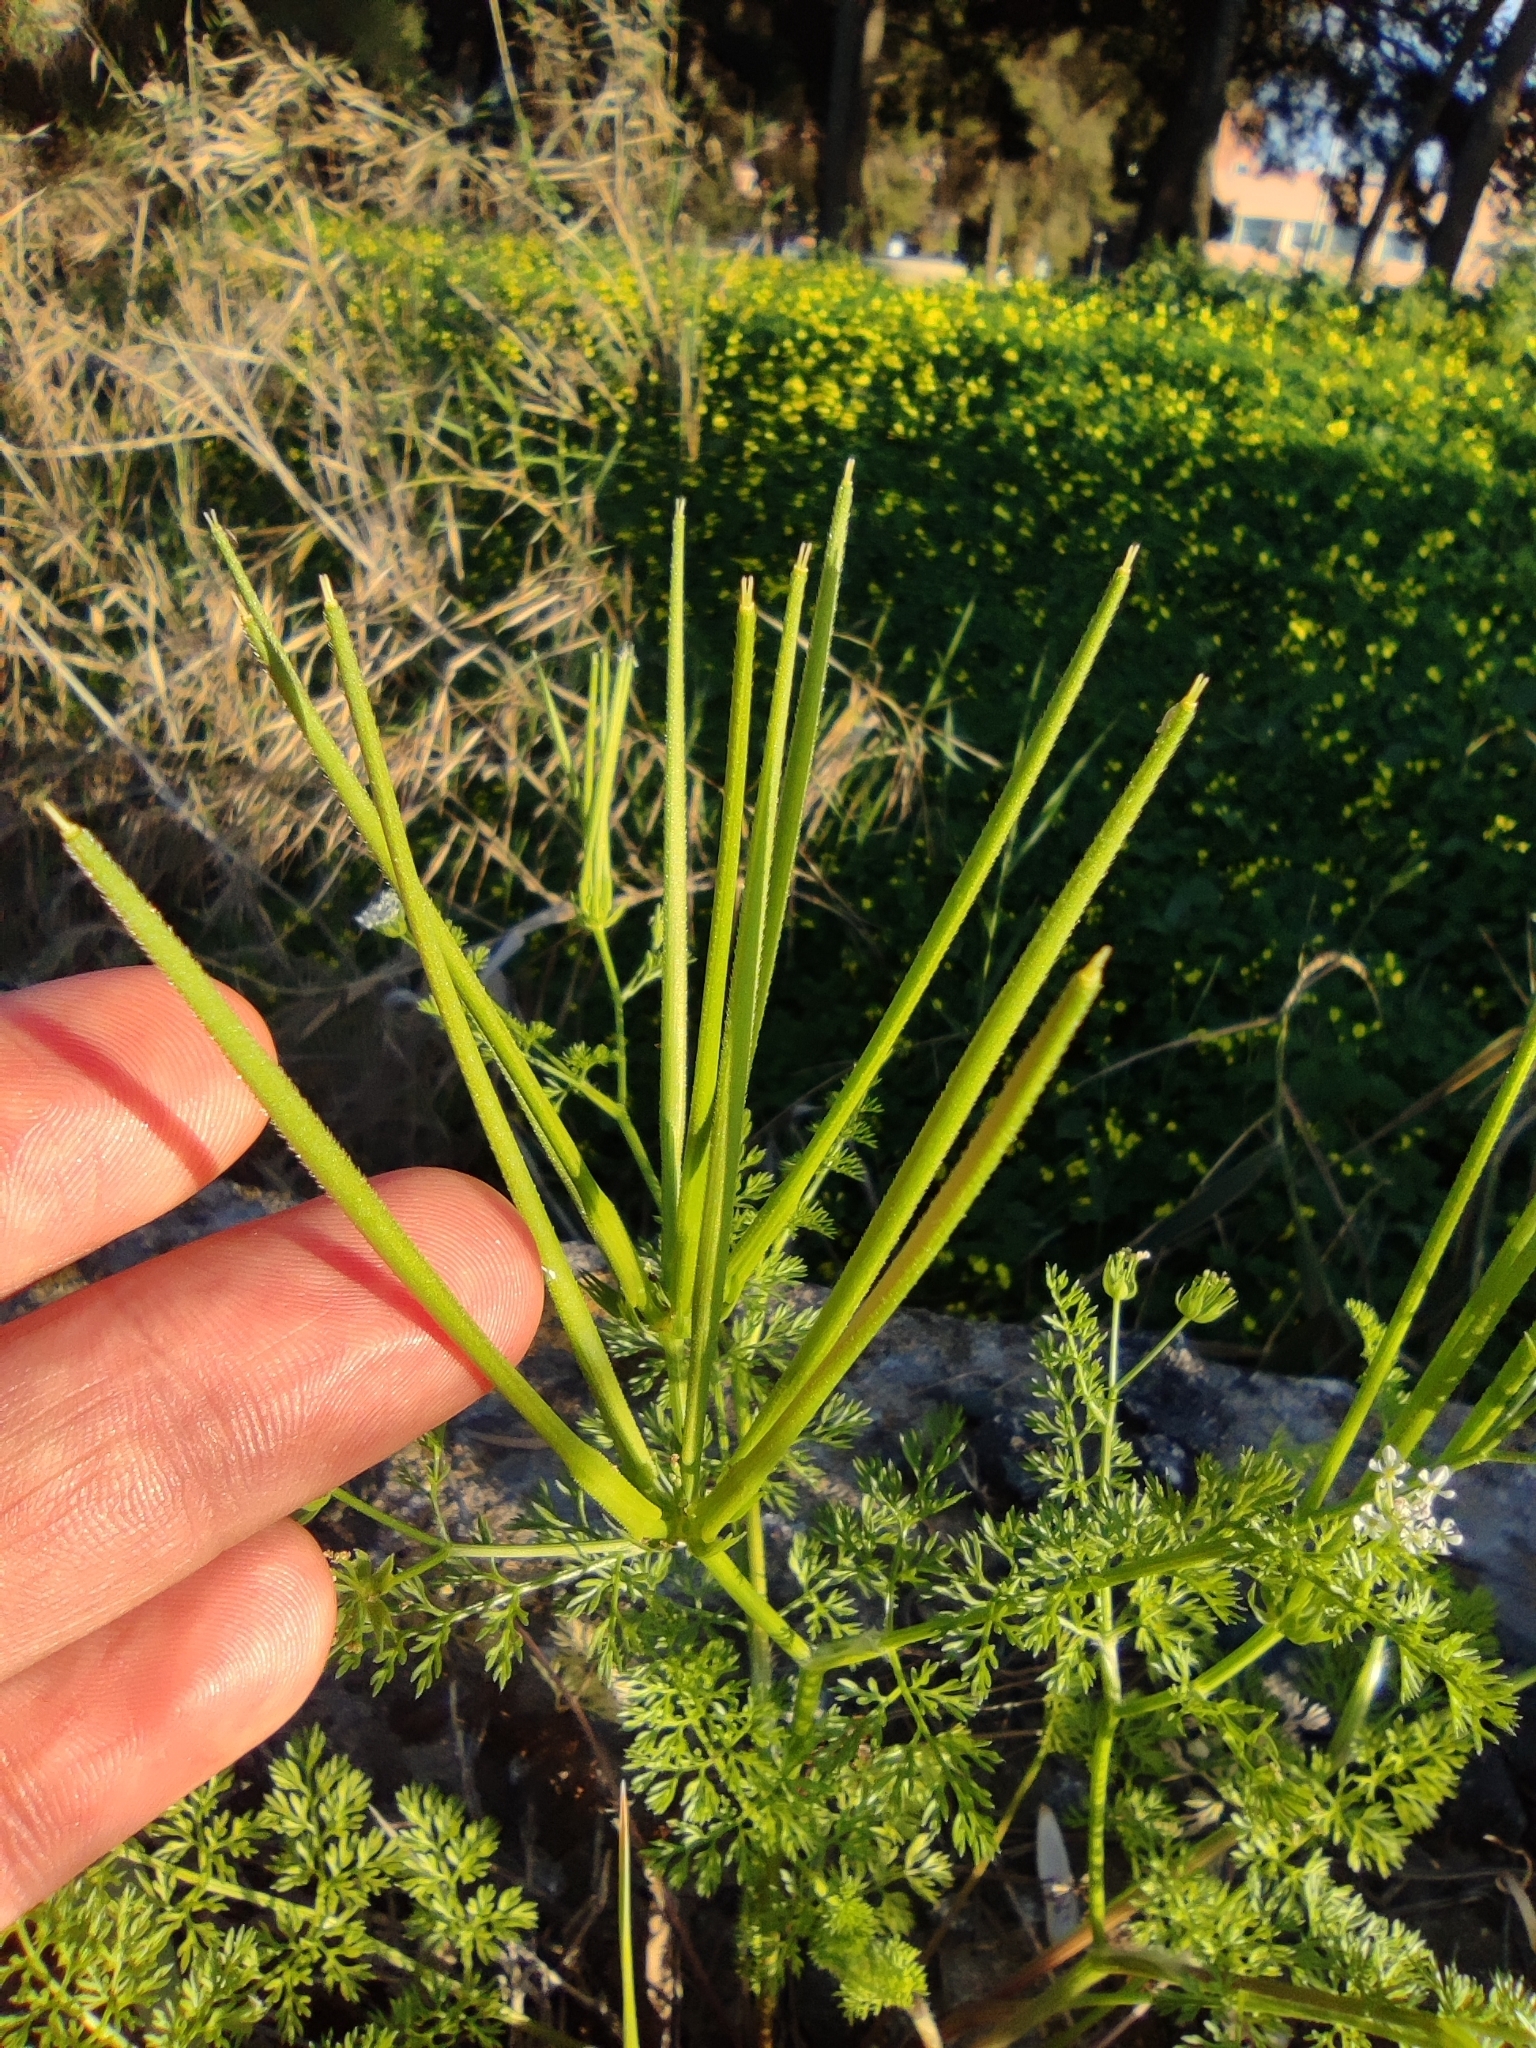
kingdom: Plantae
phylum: Tracheophyta
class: Magnoliopsida
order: Apiales
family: Apiaceae
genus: Scandix
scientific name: Scandix pecten-veneris
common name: Shepherd's-needle
